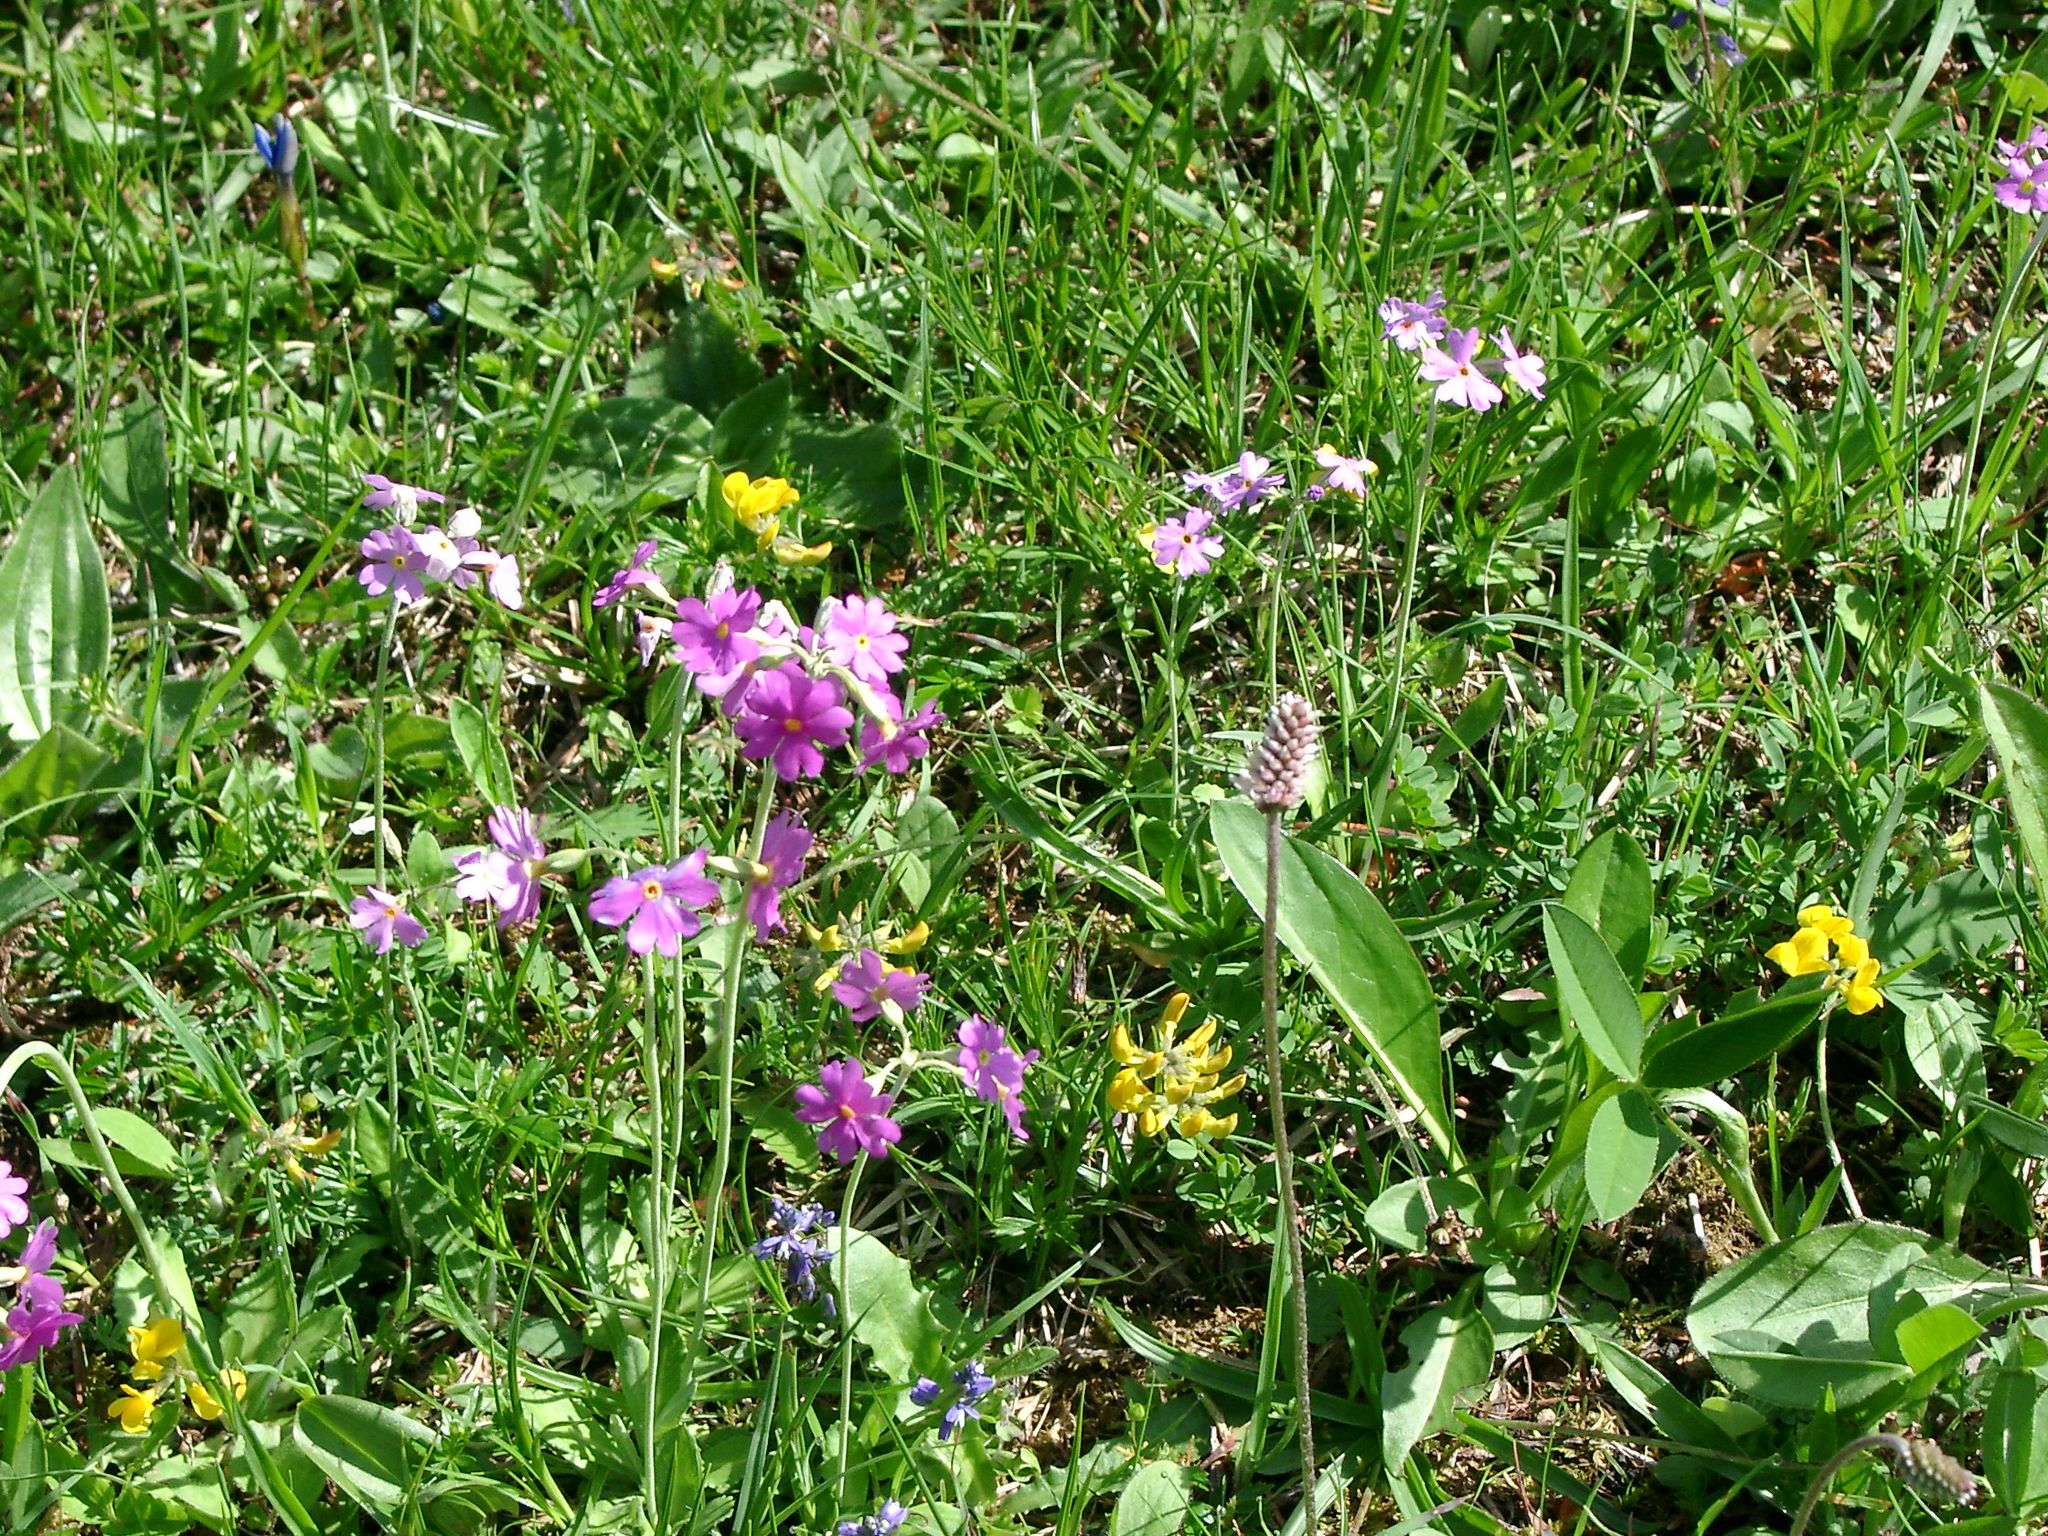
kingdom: Plantae
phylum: Tracheophyta
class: Magnoliopsida
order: Ericales
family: Primulaceae
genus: Primula
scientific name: Primula farinosa
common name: Bird's-eye primrose
